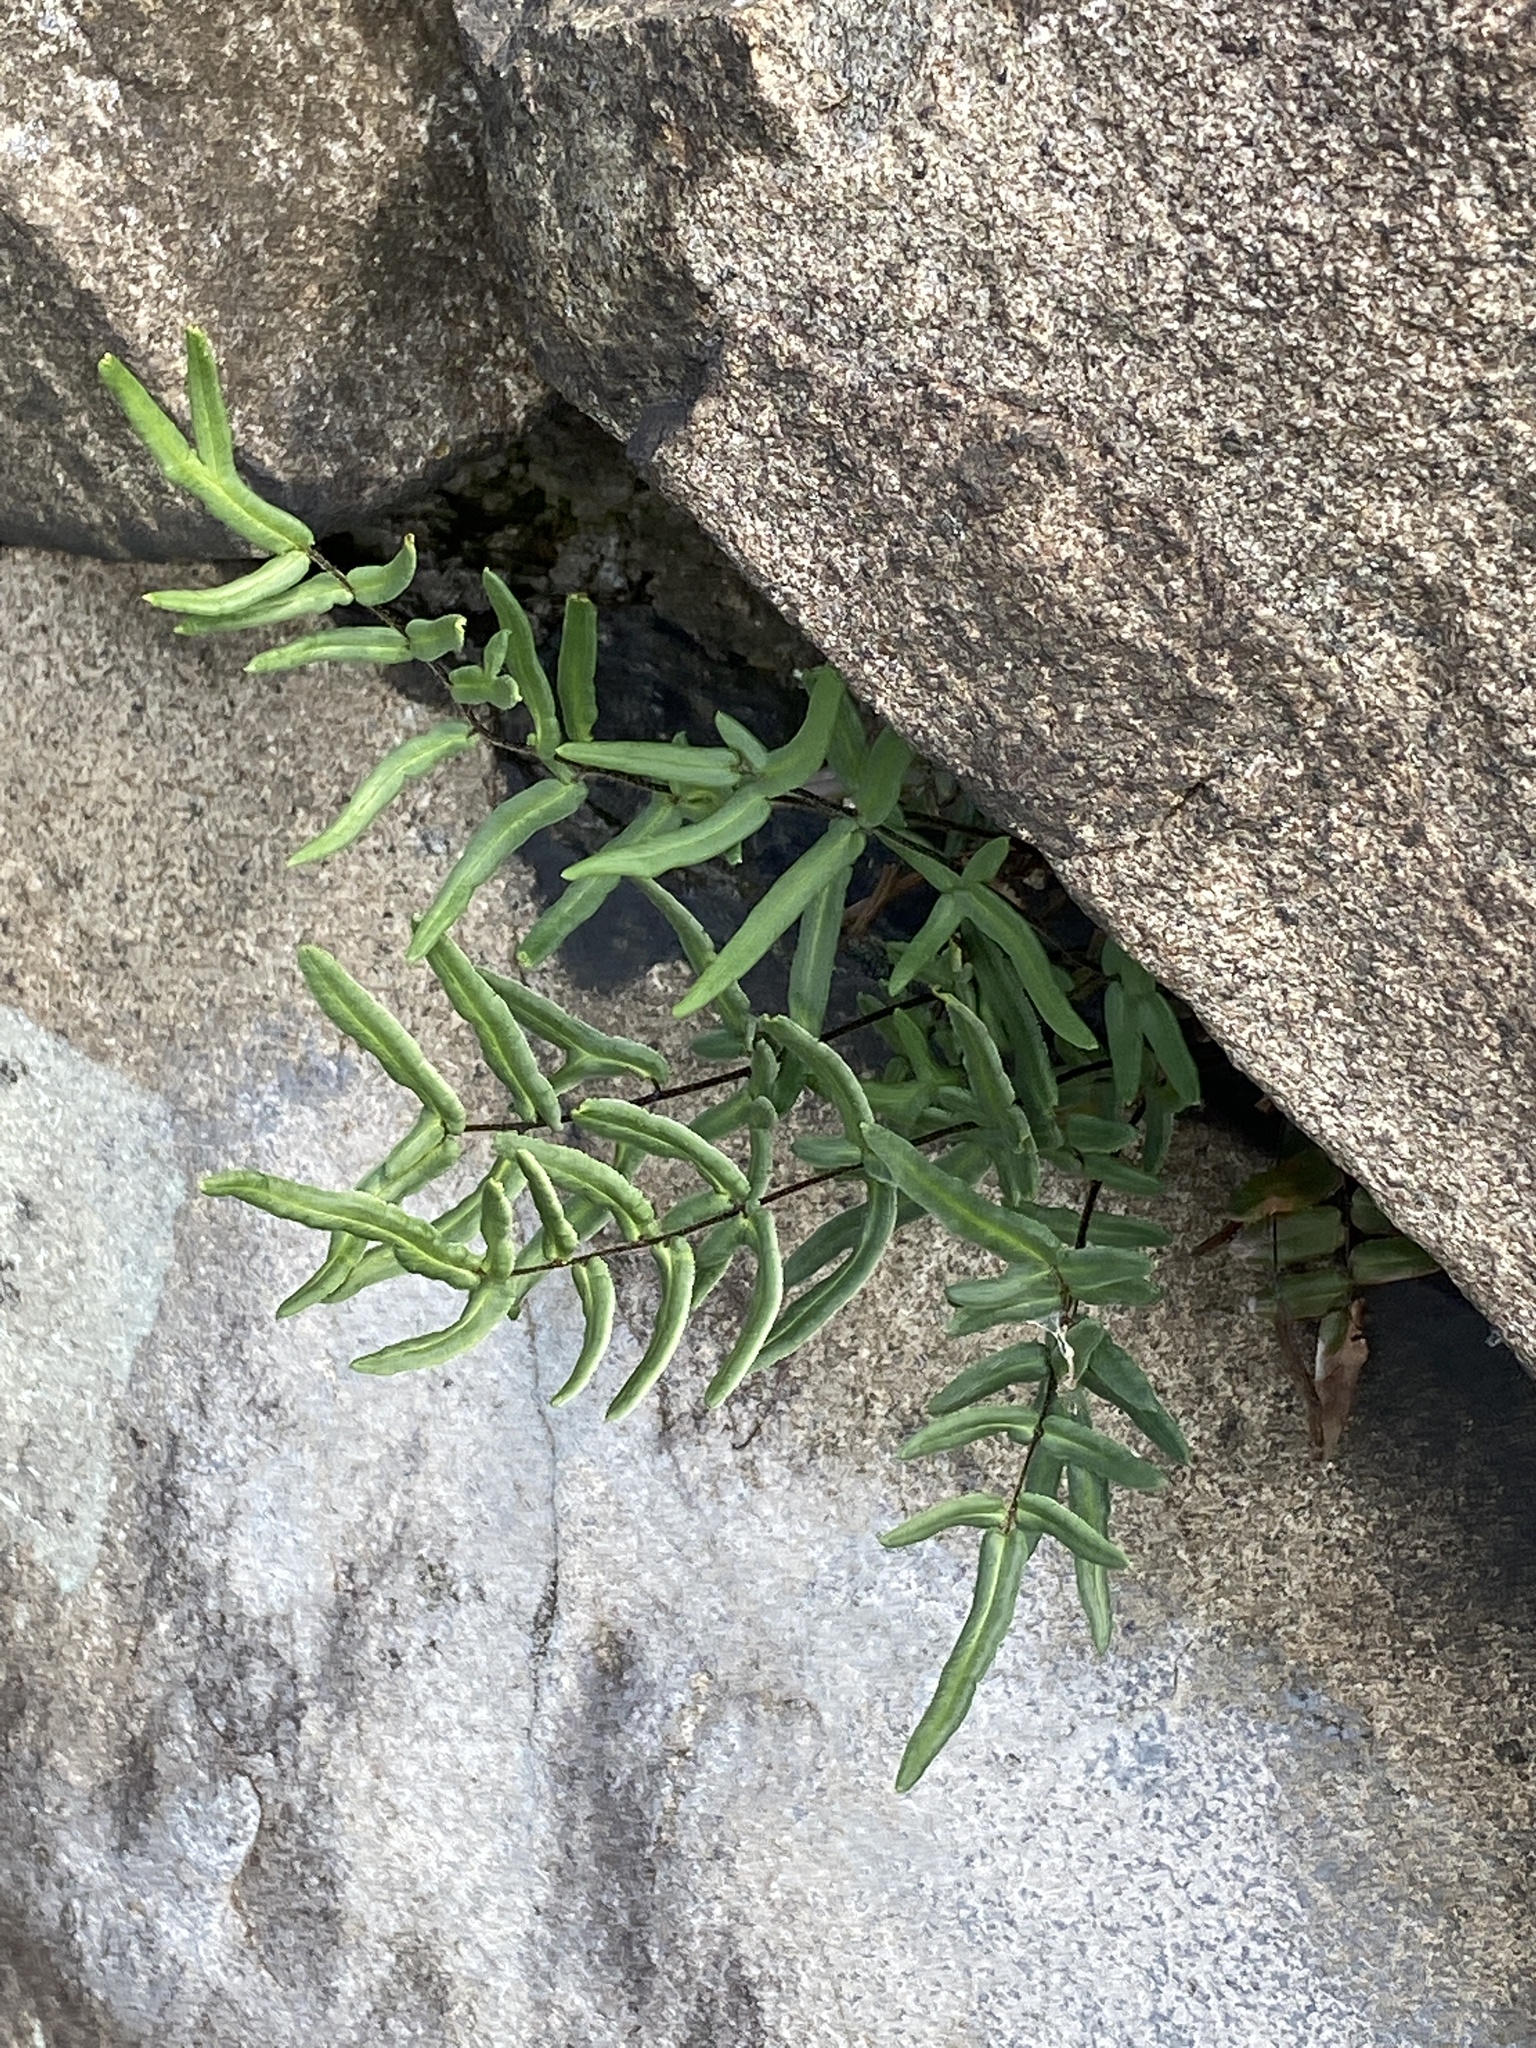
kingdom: Plantae
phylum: Tracheophyta
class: Polypodiopsida
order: Polypodiales
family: Pteridaceae
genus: Pellaea
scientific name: Pellaea atropurpurea
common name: Hairy cliffbrake
